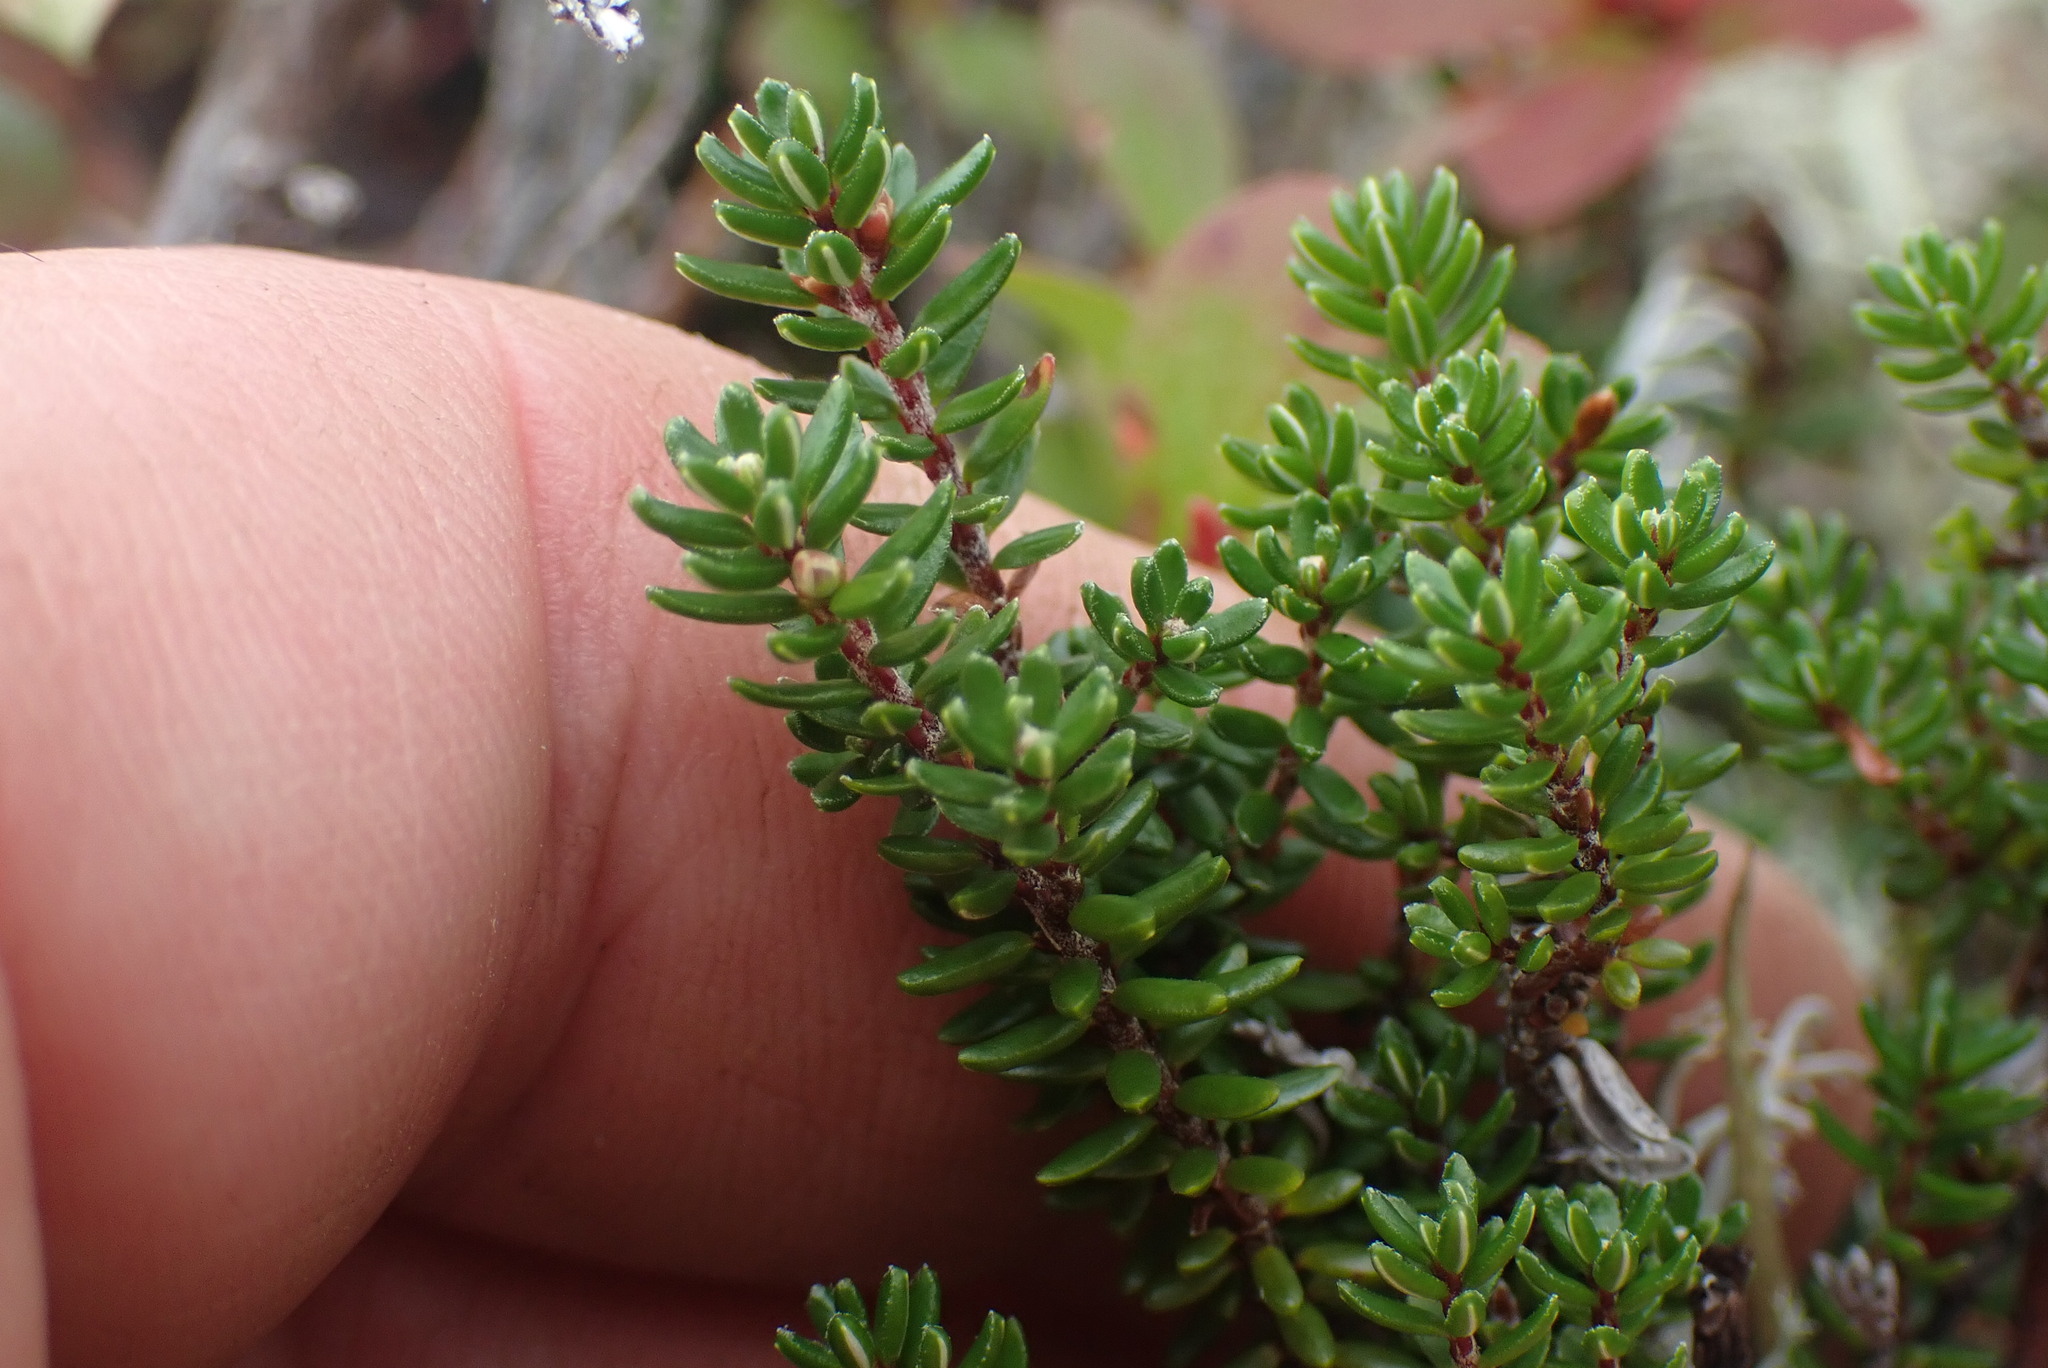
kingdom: Plantae
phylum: Tracheophyta
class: Magnoliopsida
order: Ericales
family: Ericaceae
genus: Empetrum
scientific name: Empetrum nigrum
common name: Black crowberry
